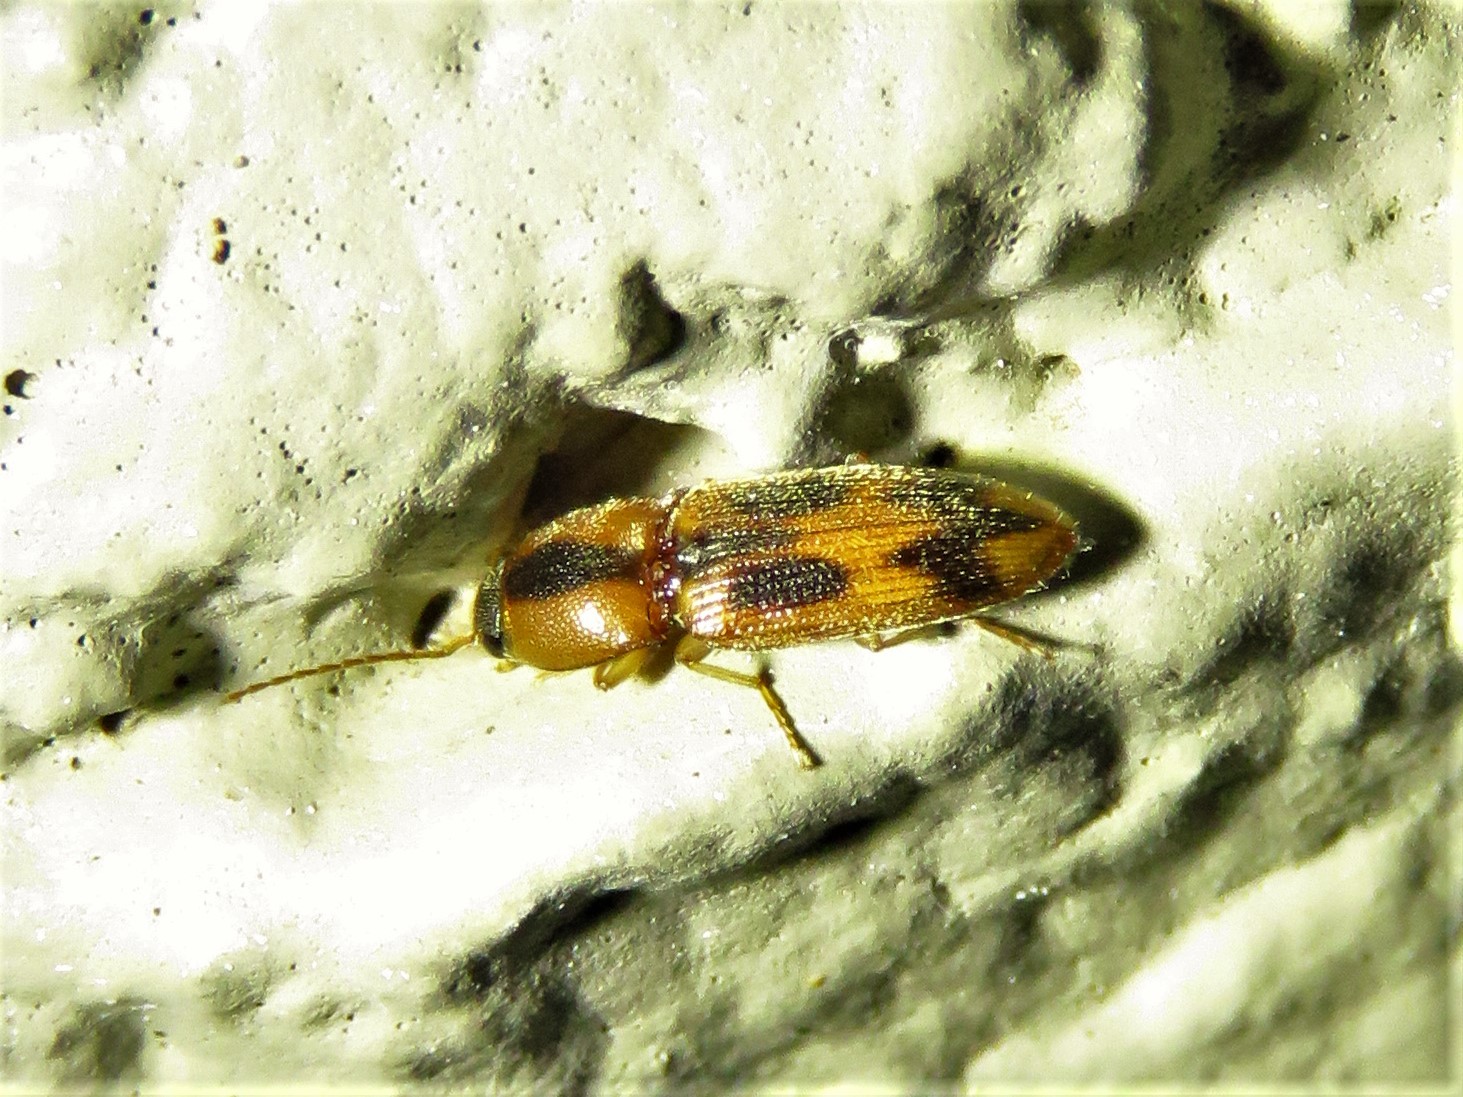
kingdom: Animalia
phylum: Arthropoda
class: Insecta
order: Coleoptera
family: Elateridae
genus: Aeolus
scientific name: Aeolus
